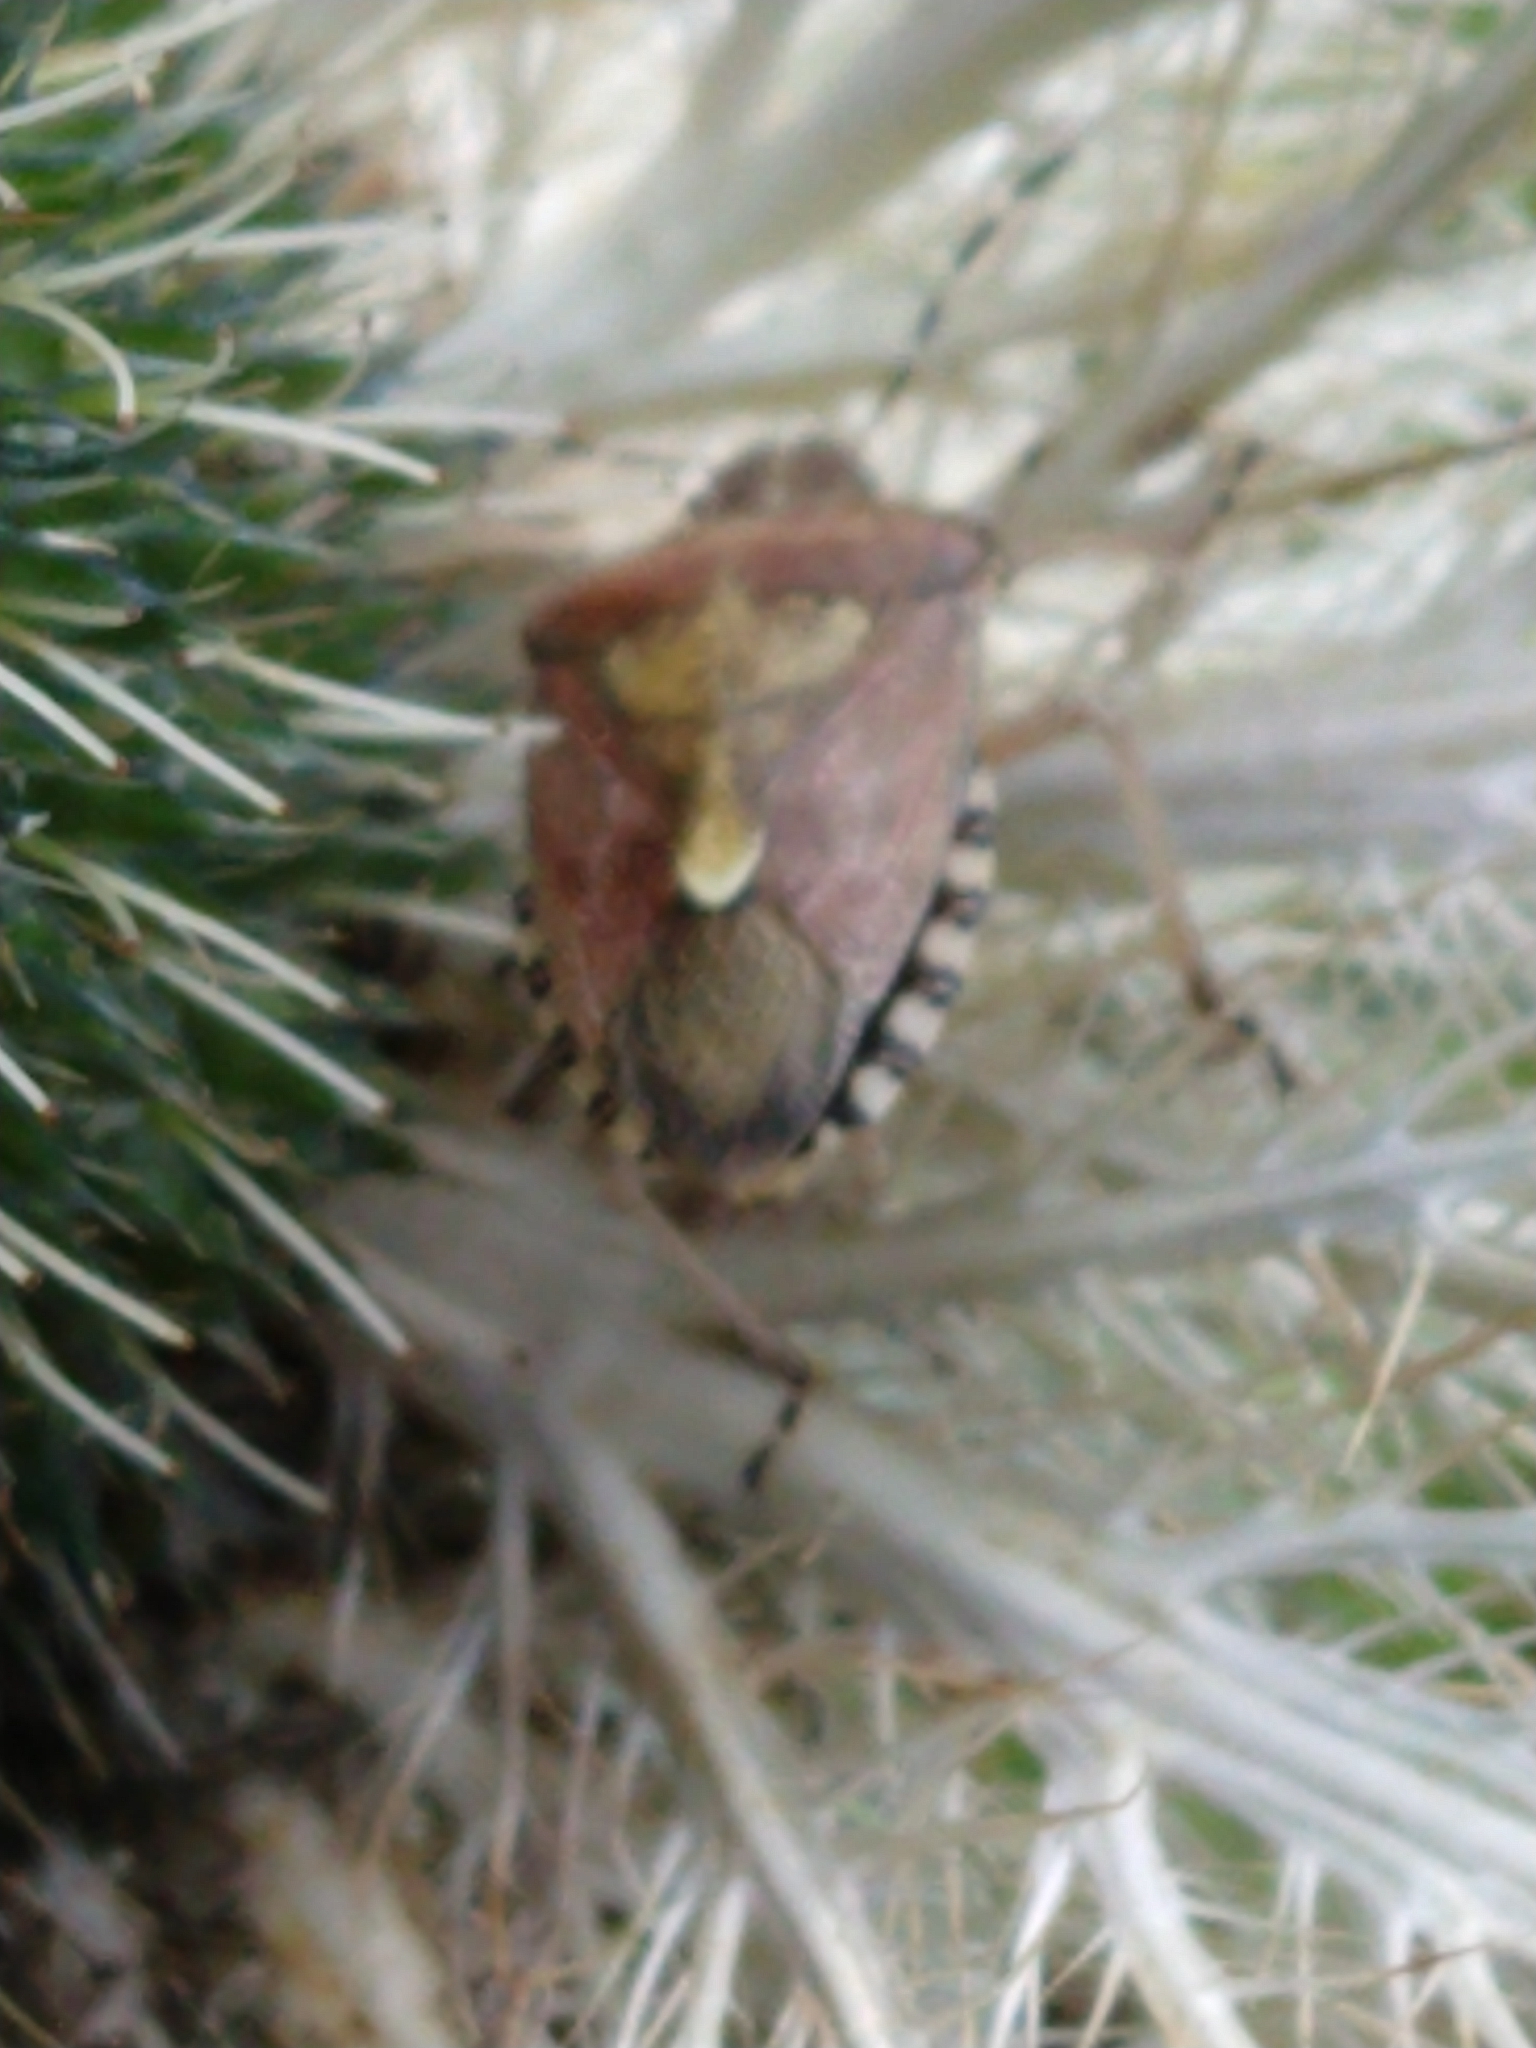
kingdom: Animalia
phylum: Arthropoda
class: Insecta
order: Hemiptera
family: Pentatomidae
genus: Dolycoris
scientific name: Dolycoris baccarum
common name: Sloe bug
